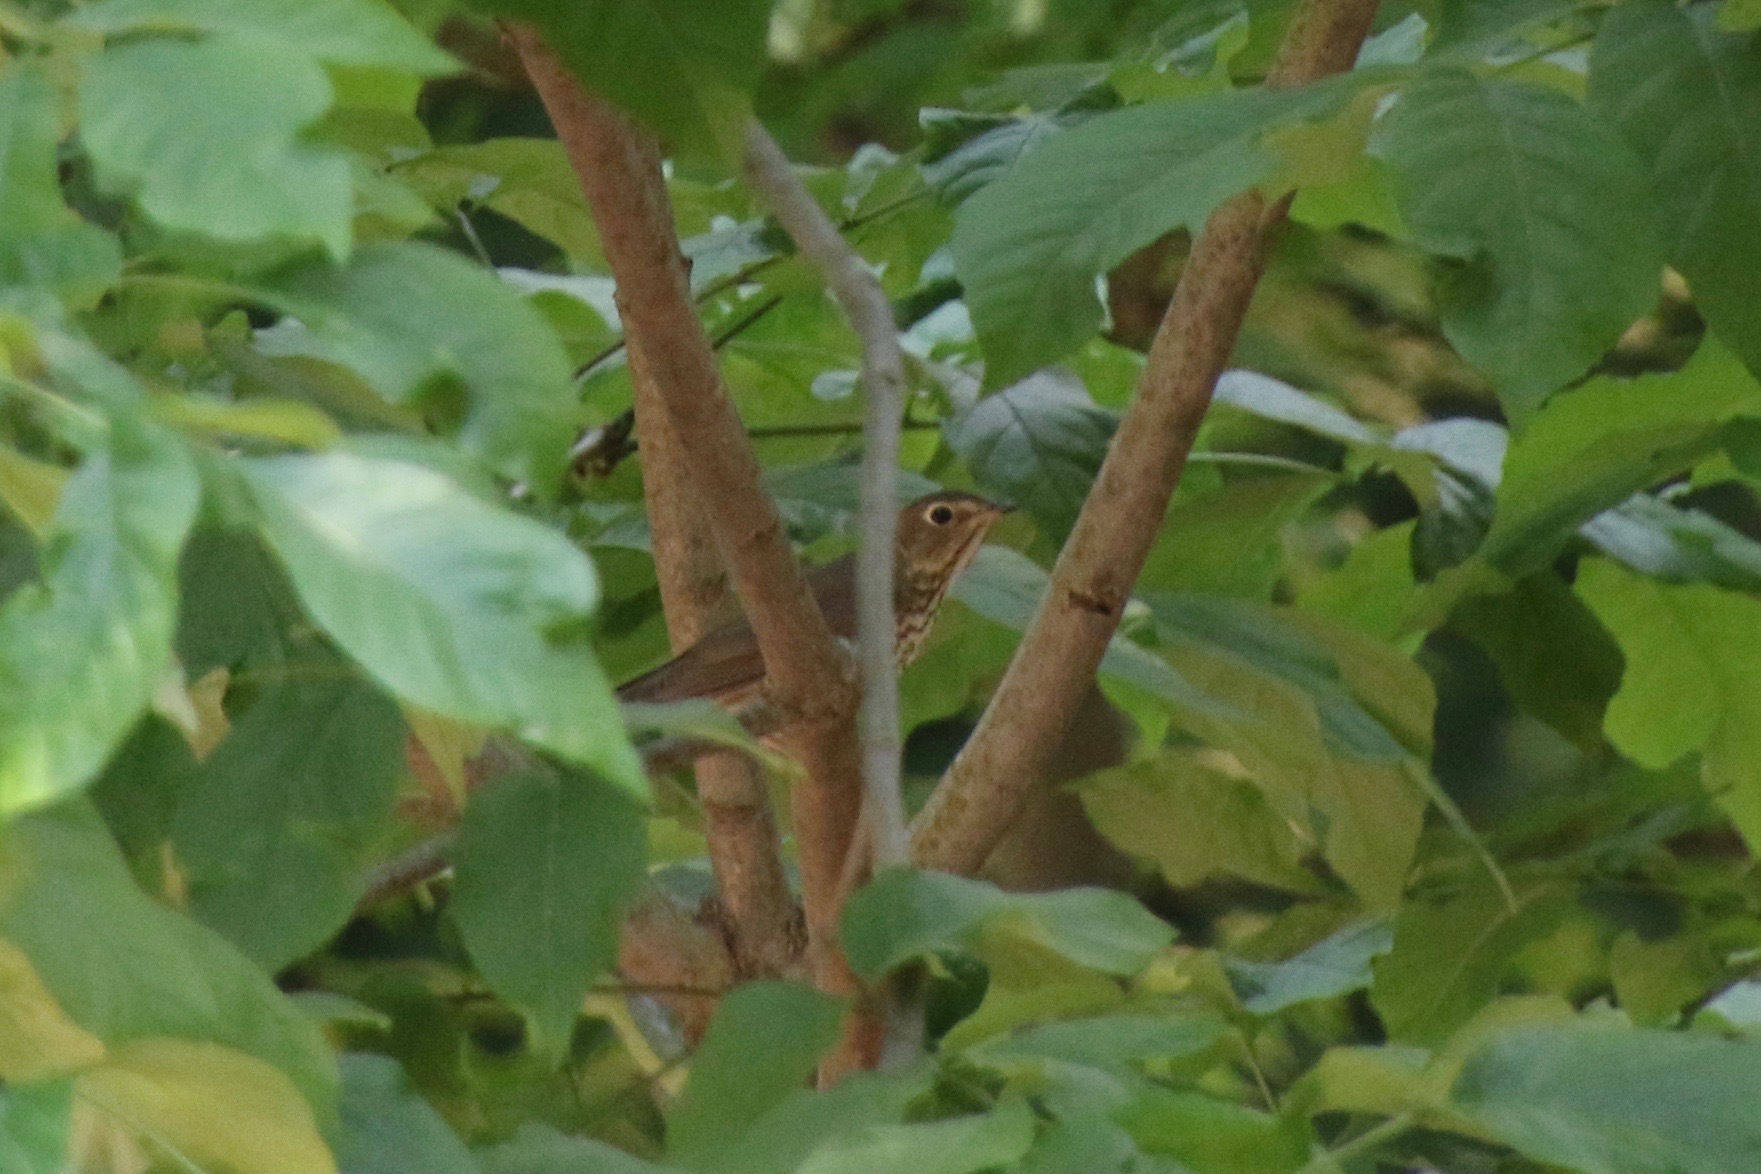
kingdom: Animalia
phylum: Chordata
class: Aves
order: Passeriformes
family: Turdidae
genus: Catharus
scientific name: Catharus ustulatus
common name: Swainson's thrush
